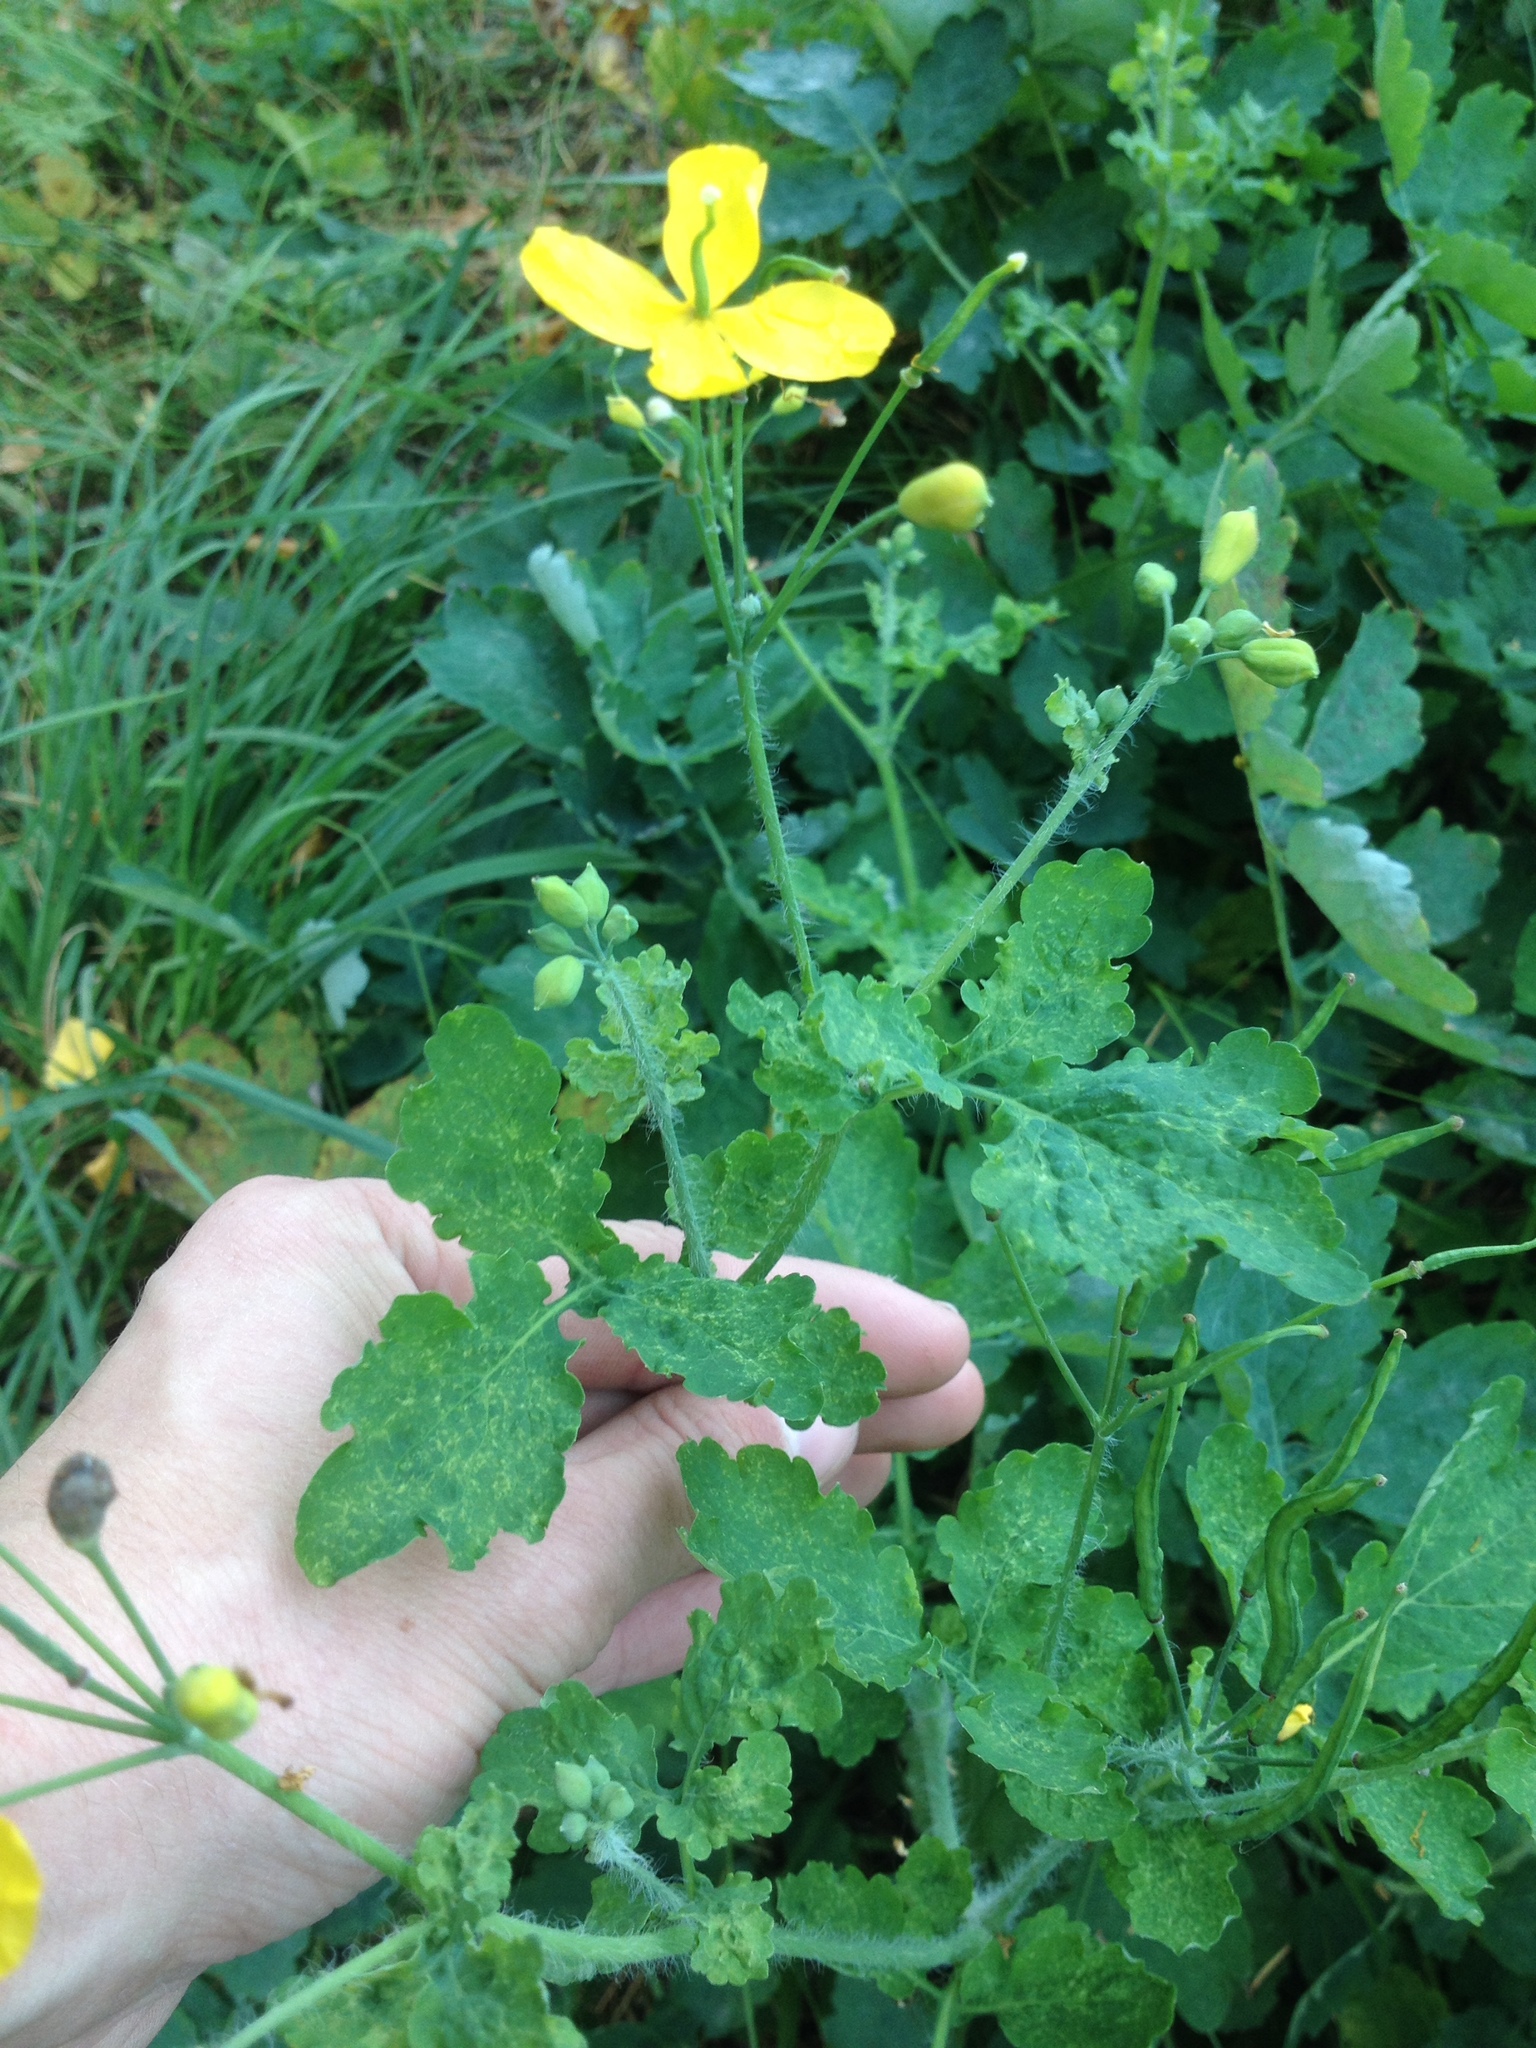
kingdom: Plantae
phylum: Tracheophyta
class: Magnoliopsida
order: Ranunculales
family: Papaveraceae
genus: Chelidonium
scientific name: Chelidonium majus
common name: Greater celandine
